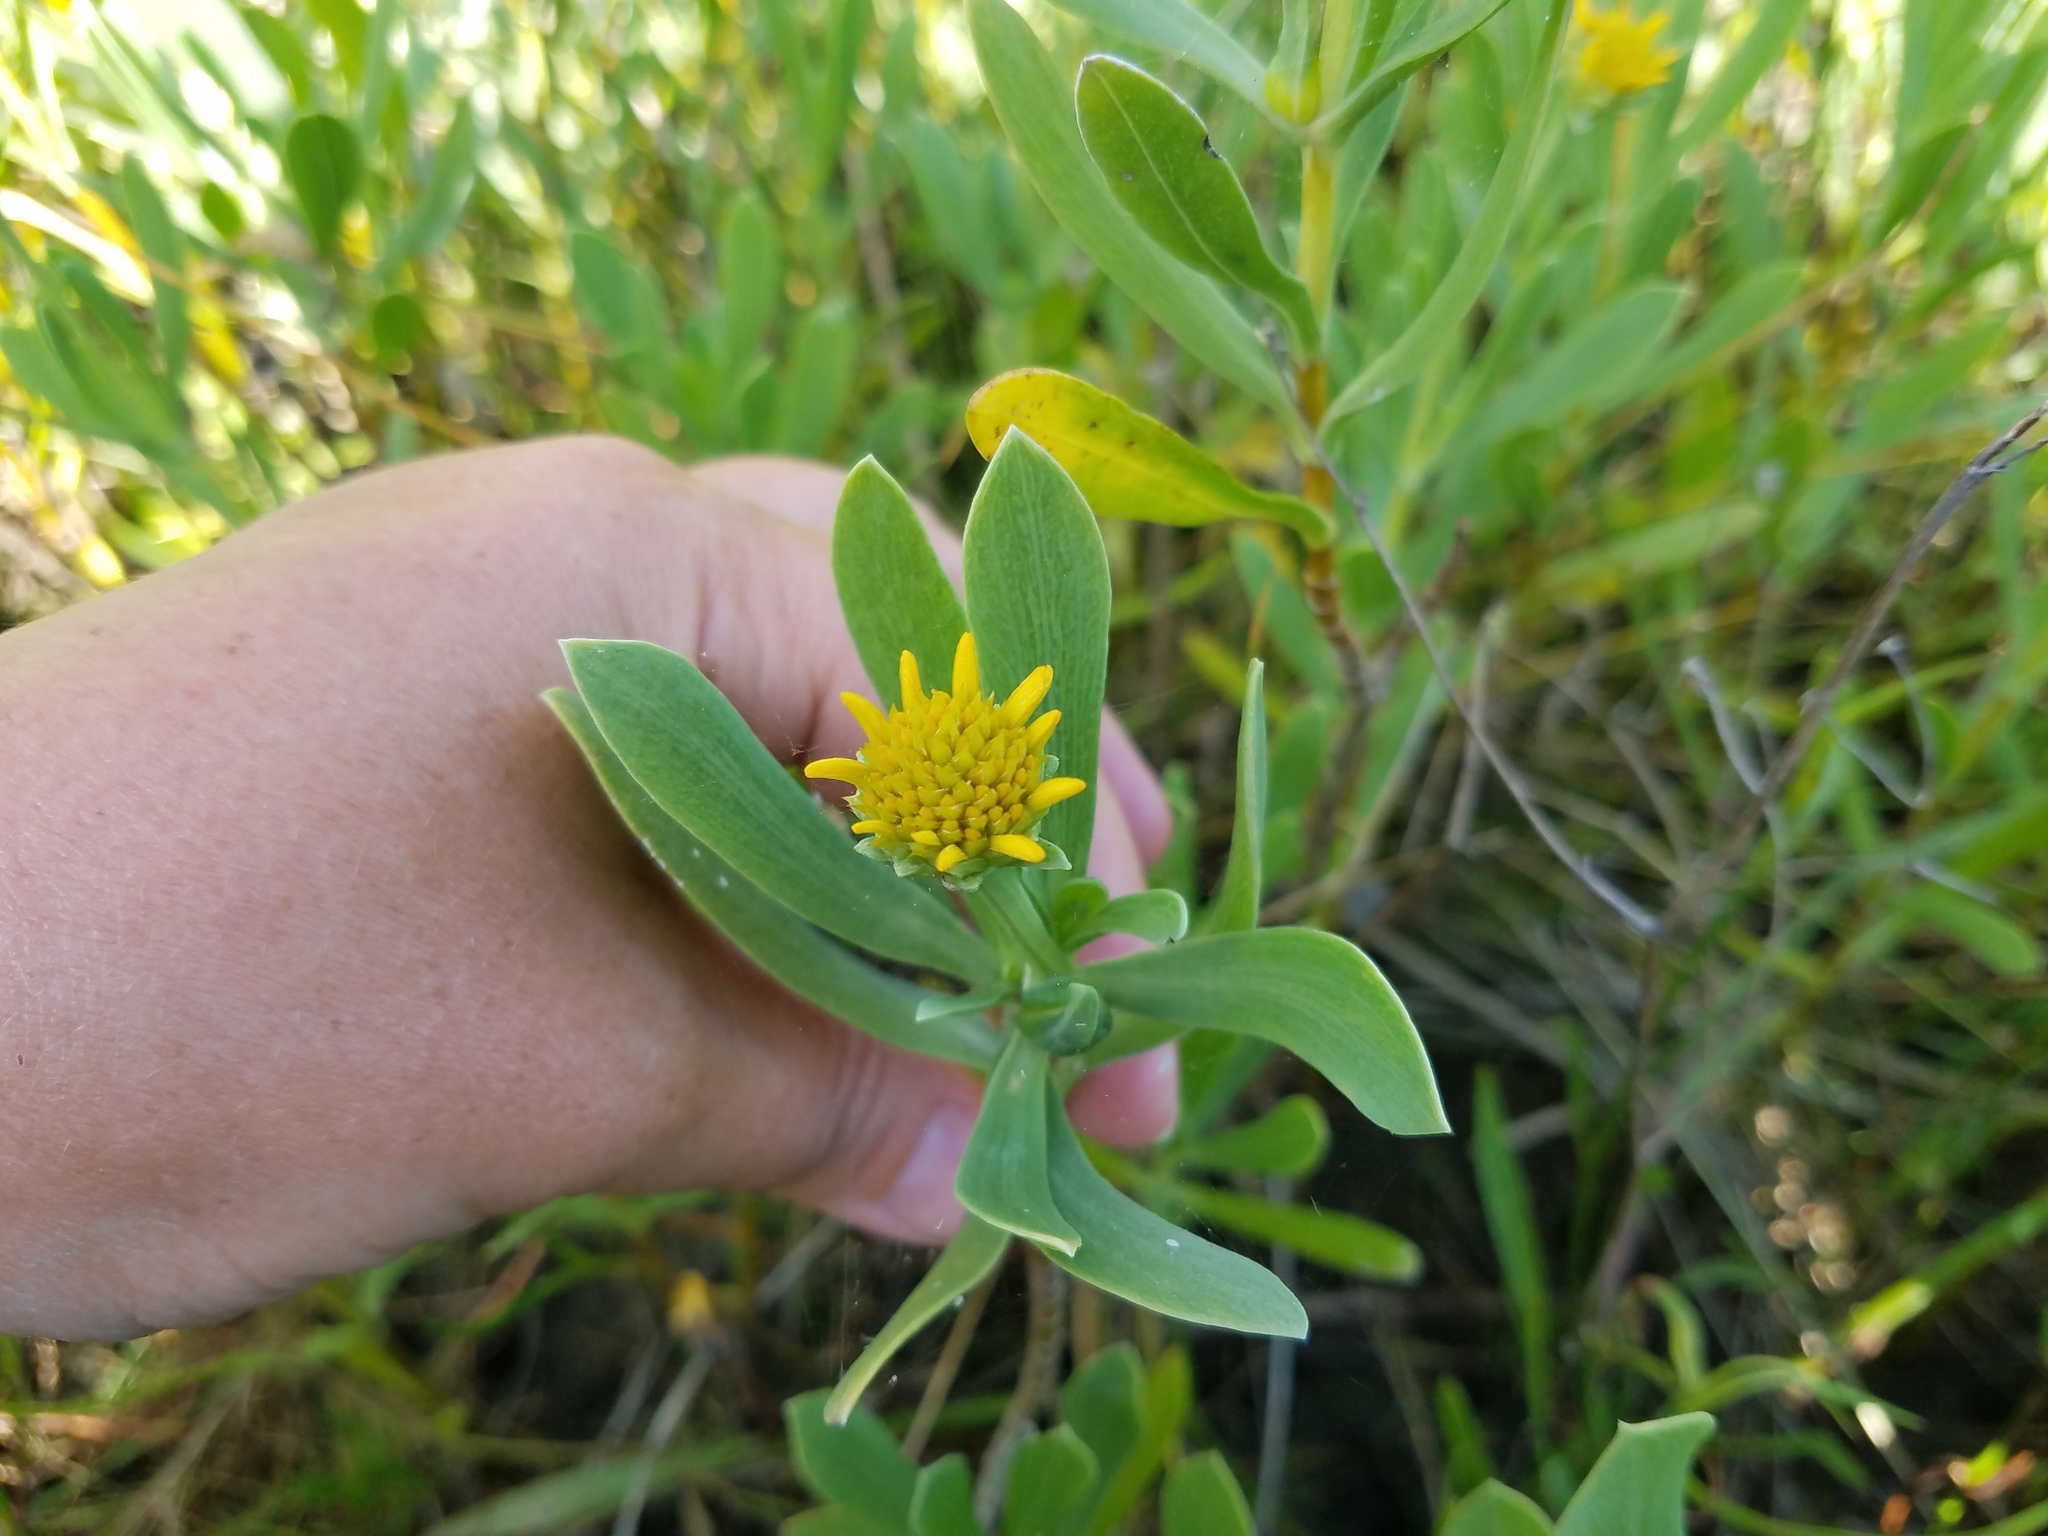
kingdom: Plantae
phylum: Tracheophyta
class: Magnoliopsida
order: Asterales
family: Asteraceae
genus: Borrichia
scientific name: Borrichia frutescens
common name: Sea oxeye
